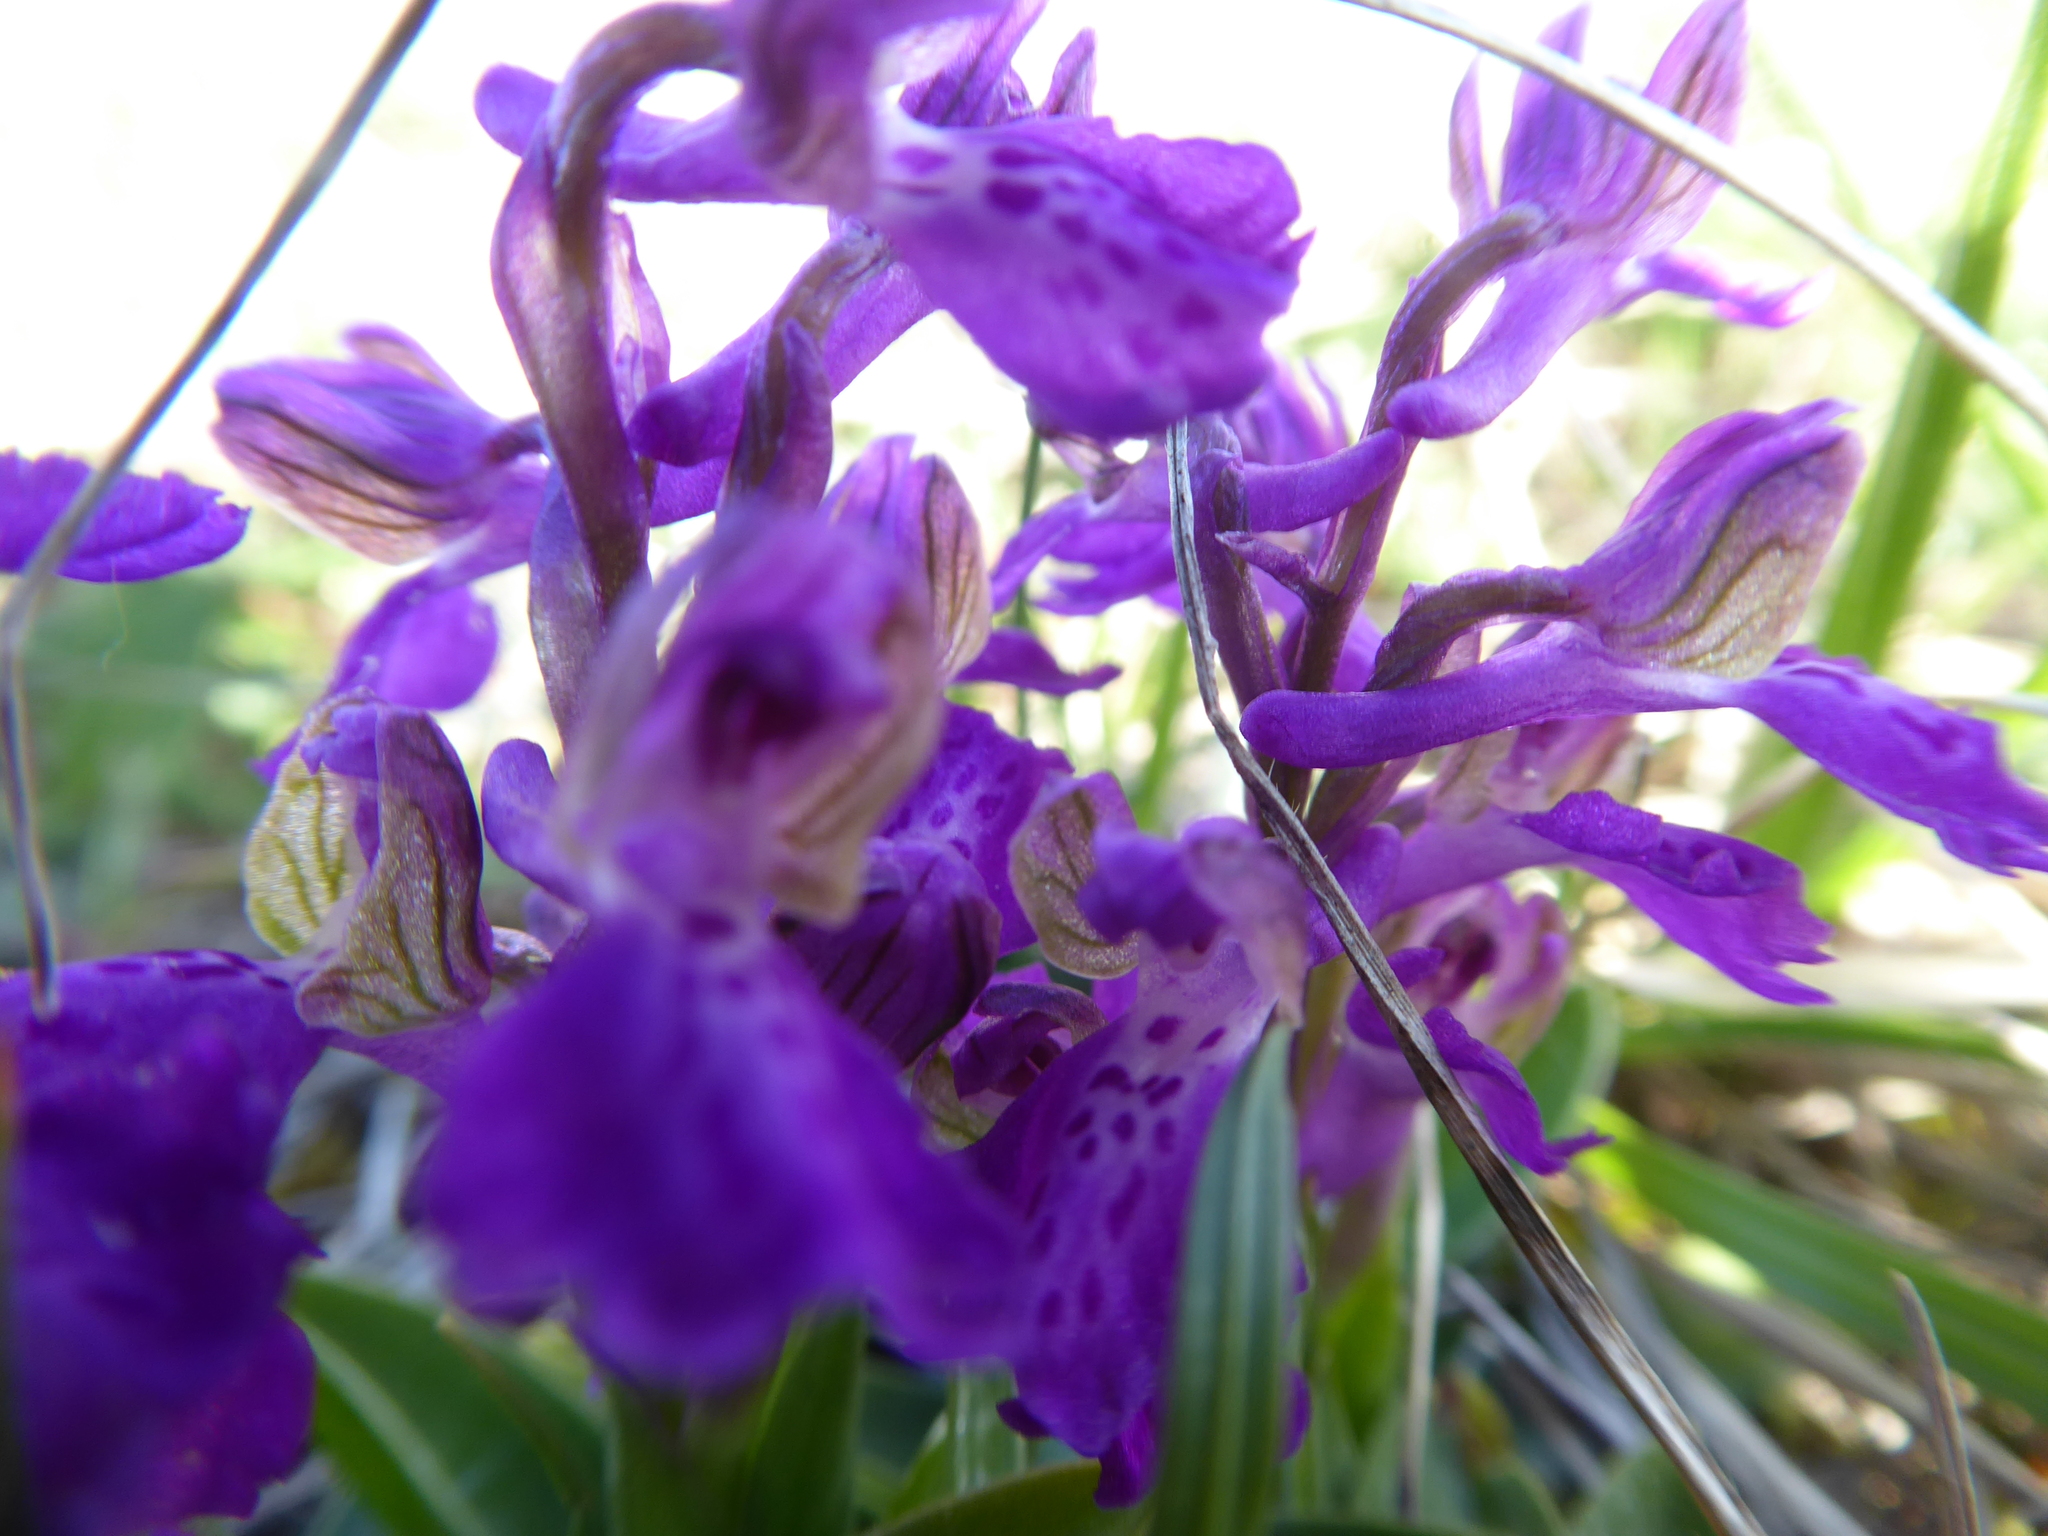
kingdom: Plantae
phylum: Tracheophyta
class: Liliopsida
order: Asparagales
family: Orchidaceae
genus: Anacamptis
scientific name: Anacamptis morio
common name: Green-winged orchid
